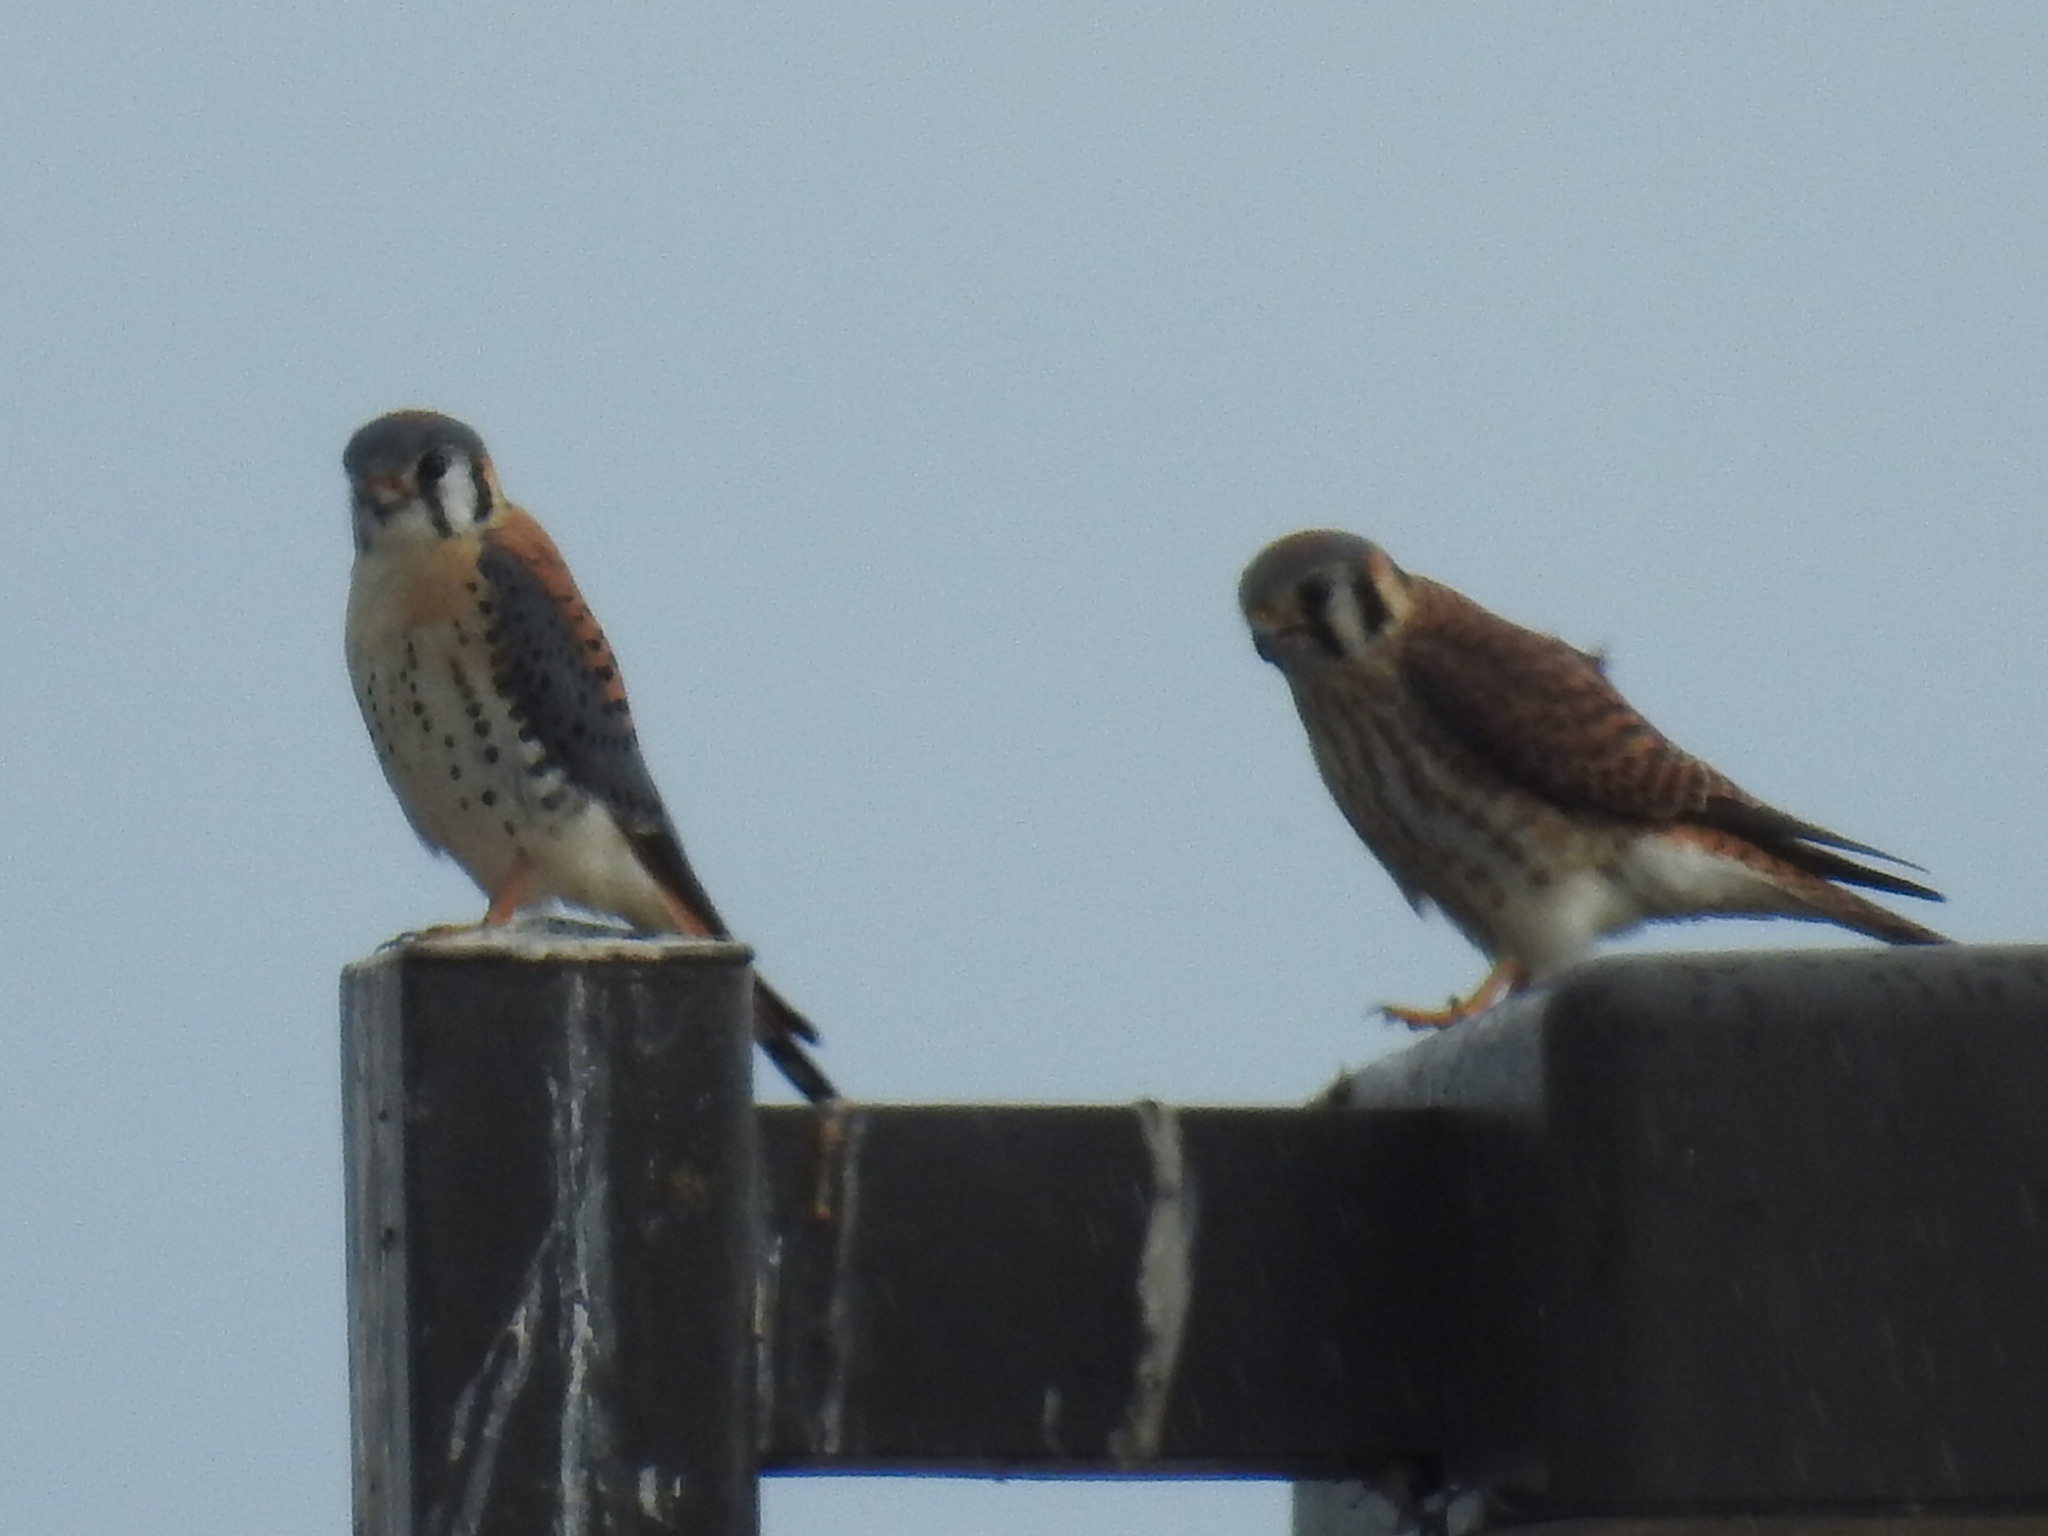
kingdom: Animalia
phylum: Chordata
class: Aves
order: Falconiformes
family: Falconidae
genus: Falco
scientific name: Falco sparverius
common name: American kestrel
